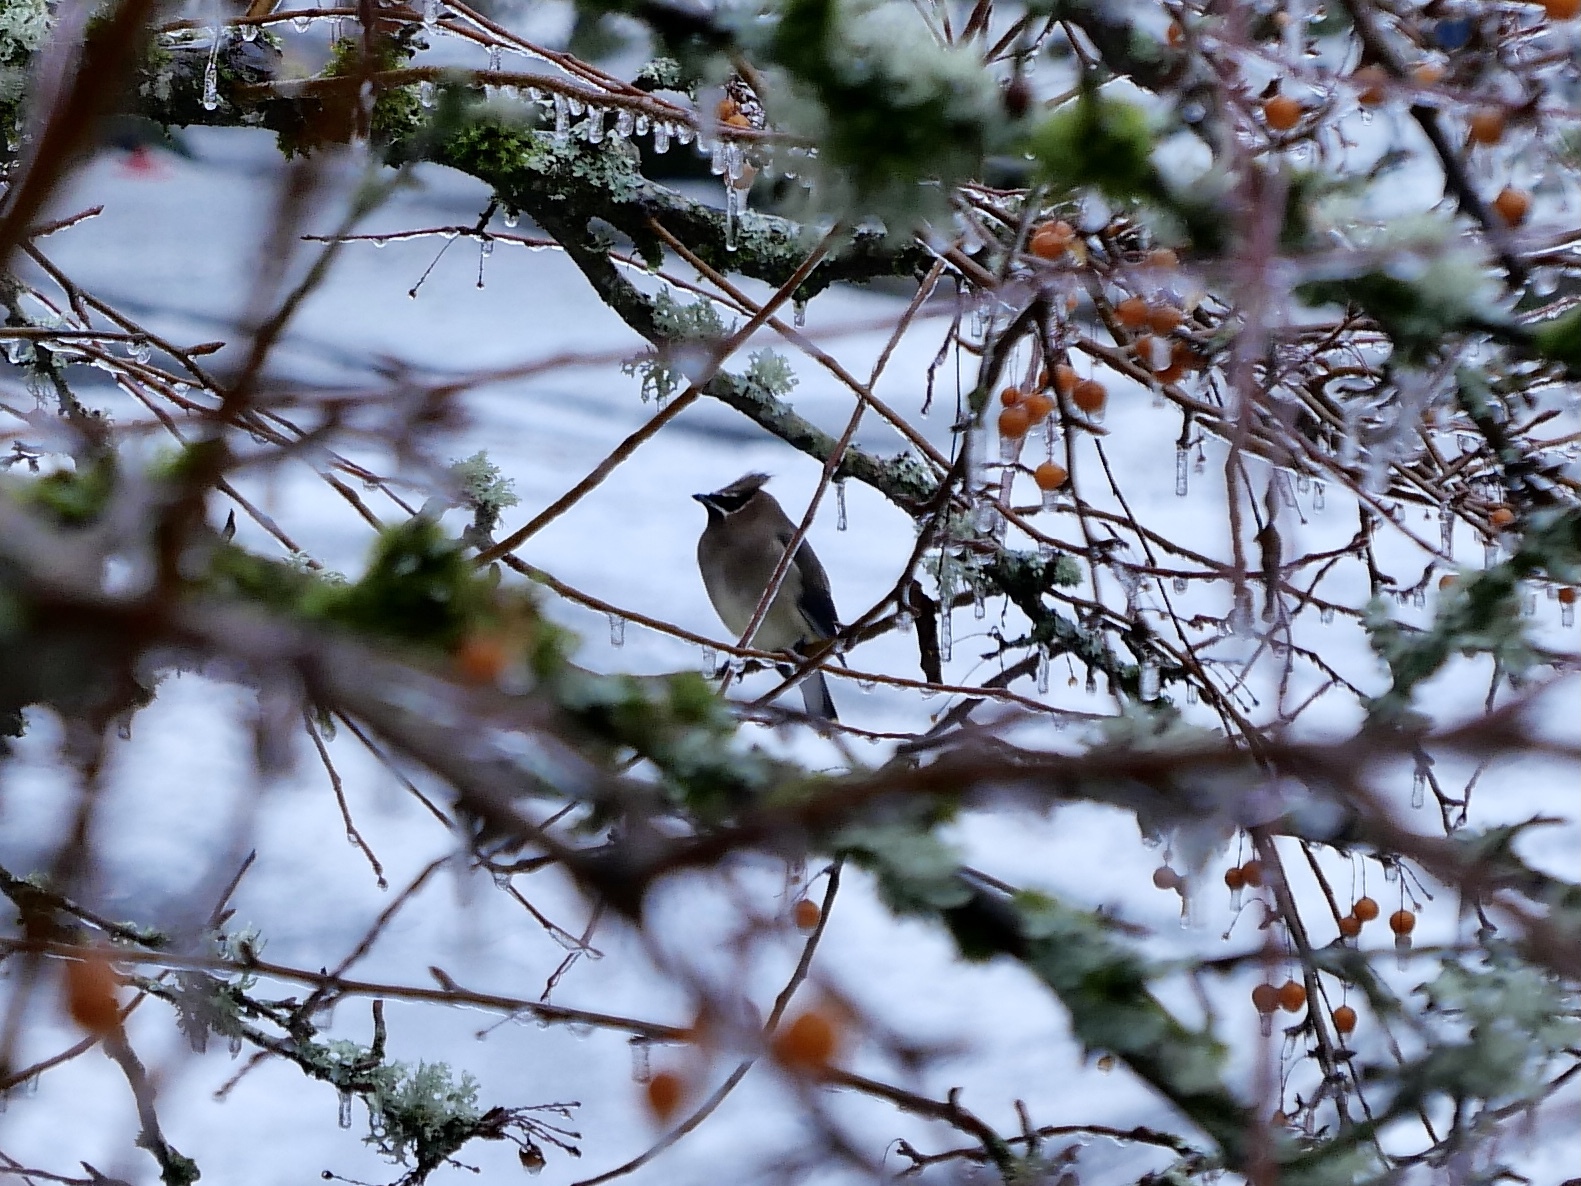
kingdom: Animalia
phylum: Chordata
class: Aves
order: Passeriformes
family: Bombycillidae
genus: Bombycilla
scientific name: Bombycilla cedrorum
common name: Cedar waxwing
